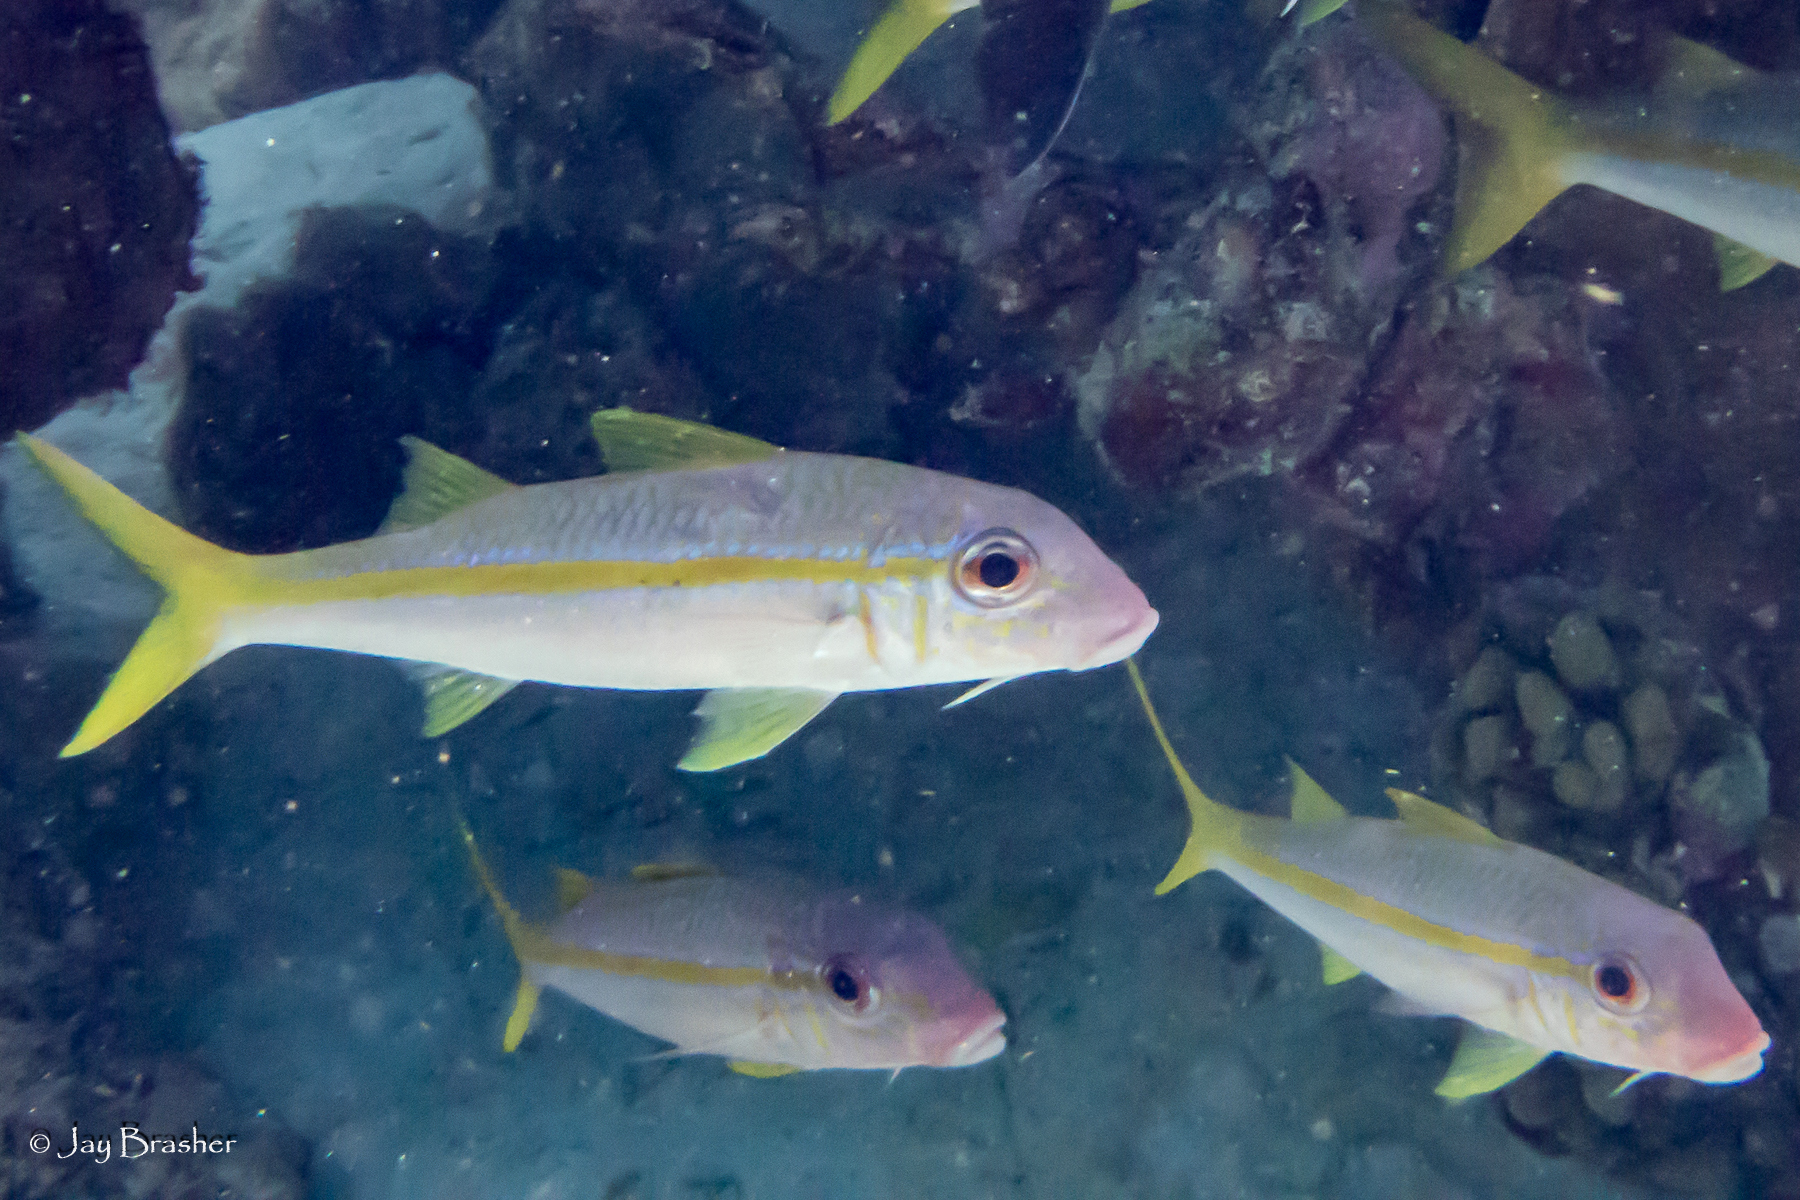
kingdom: Animalia
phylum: Chordata
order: Perciformes
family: Mullidae
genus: Mulloidichthys
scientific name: Mulloidichthys martinicus
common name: Yellow goatfish
